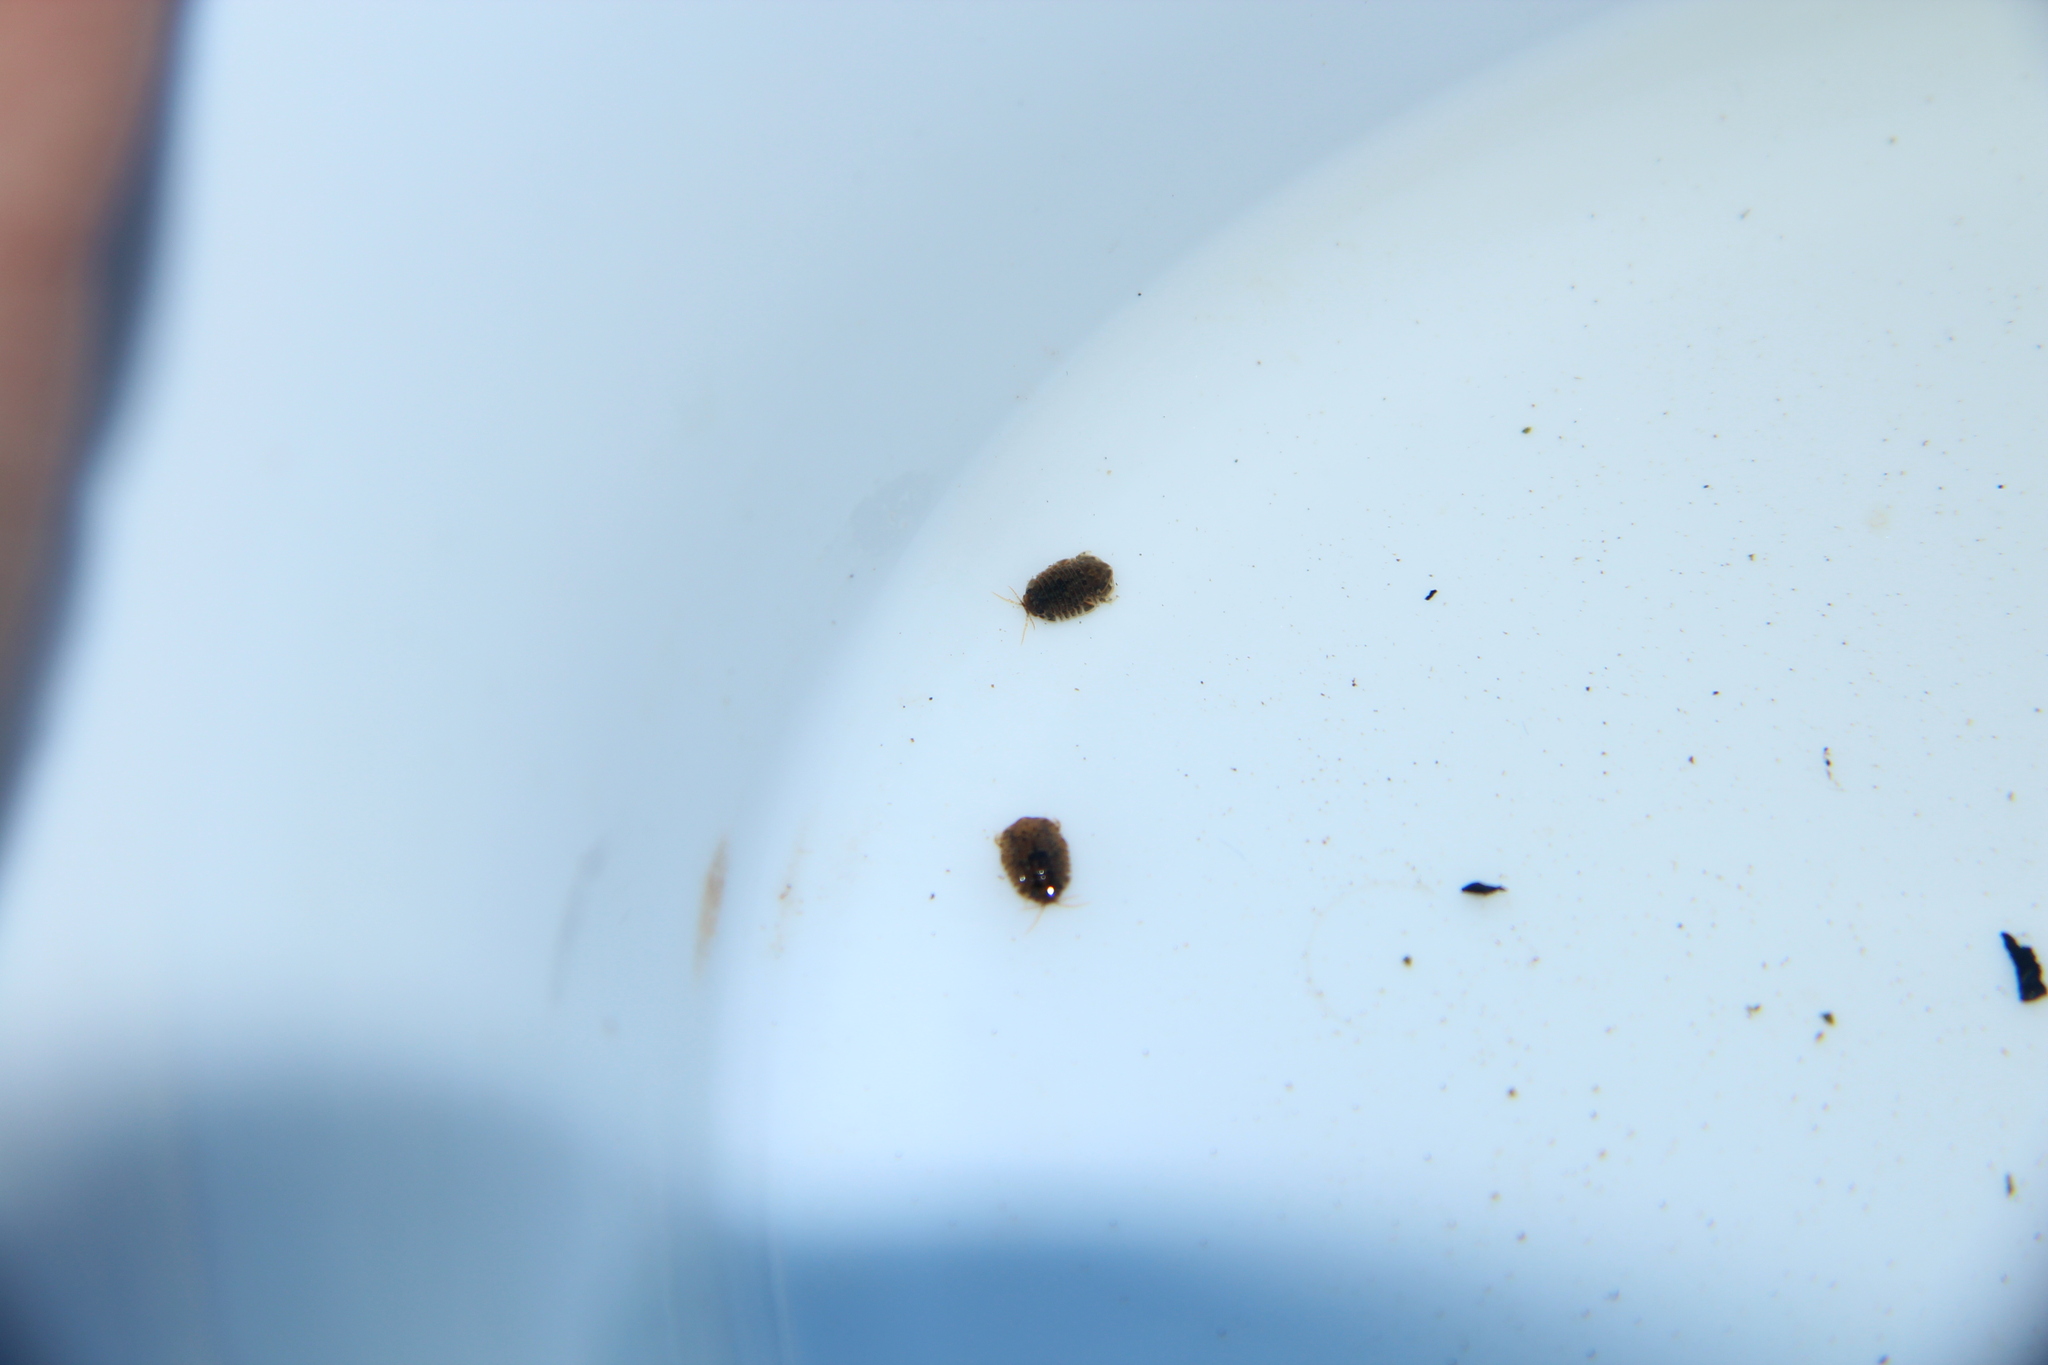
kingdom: Animalia
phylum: Arthropoda
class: Malacostraca
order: Isopoda
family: Sphaeromatidae
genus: Exosphaeroma
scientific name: Exosphaeroma planulum
